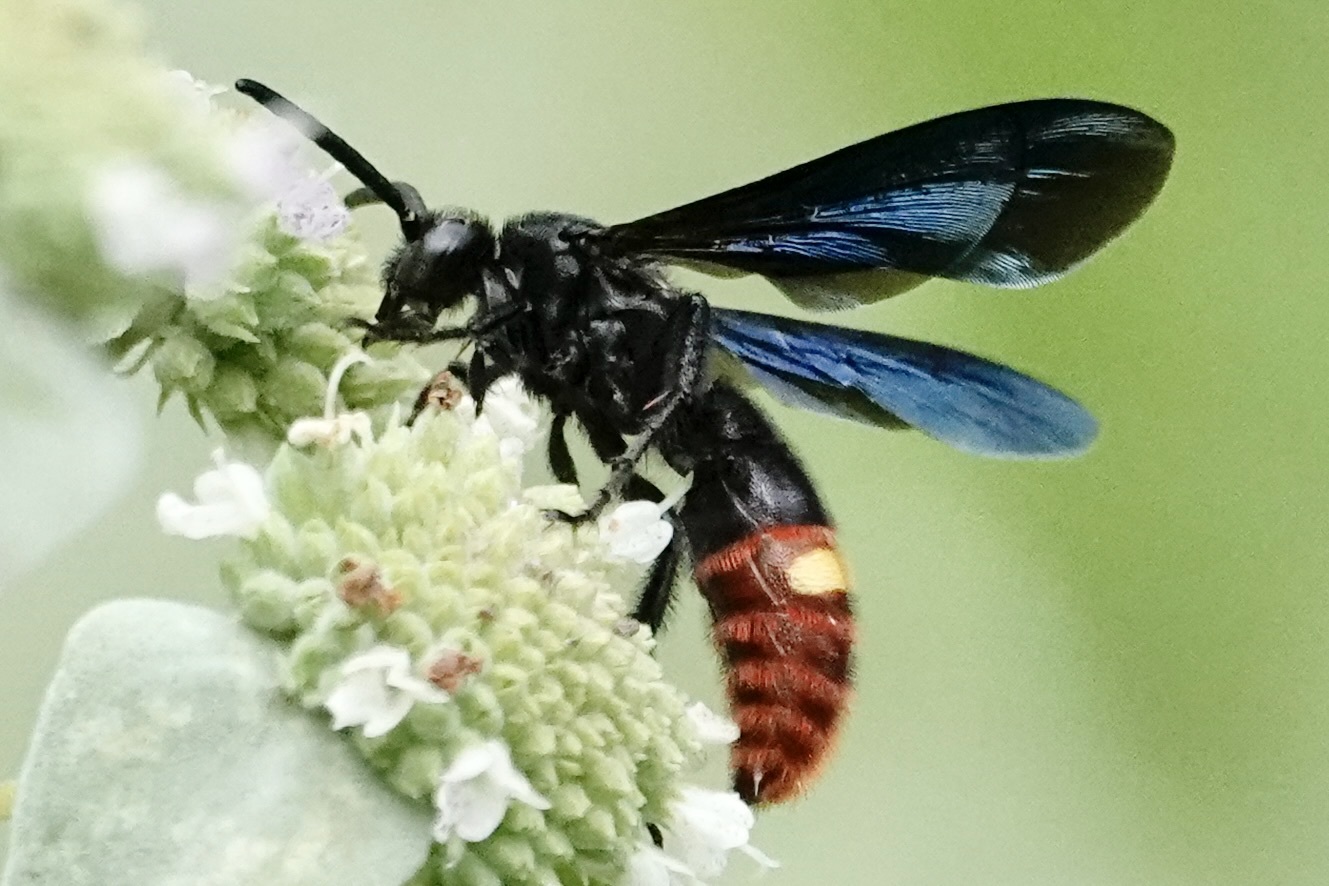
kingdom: Animalia
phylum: Arthropoda
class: Insecta
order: Hymenoptera
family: Scoliidae
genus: Scolia
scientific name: Scolia dubia
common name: Blue-winged scoliid wasp
